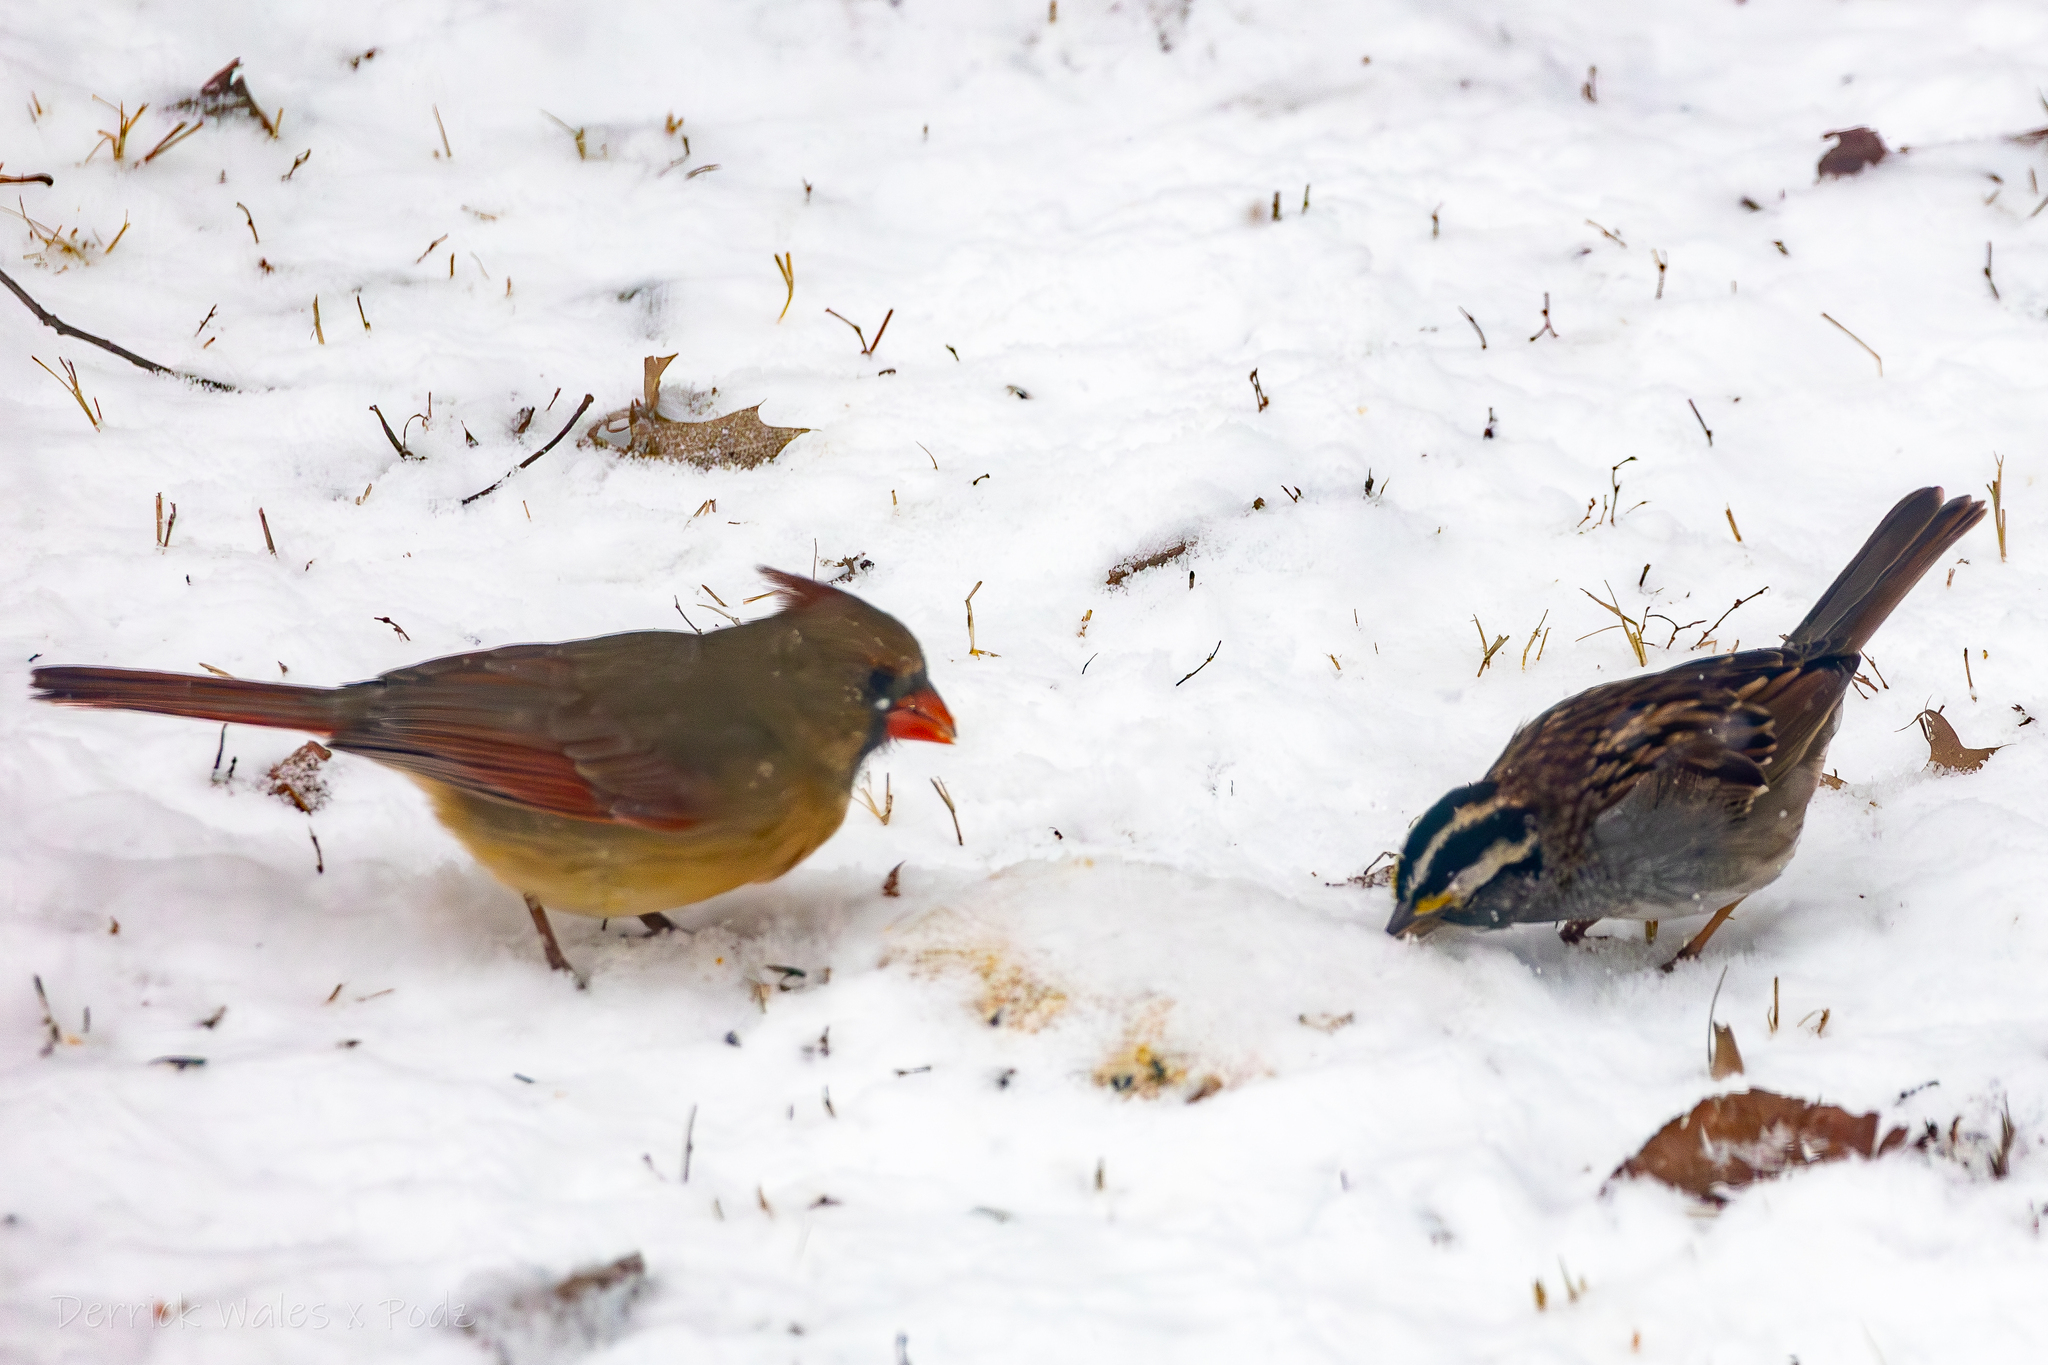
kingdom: Animalia
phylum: Chordata
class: Aves
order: Passeriformes
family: Cardinalidae
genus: Cardinalis
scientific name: Cardinalis cardinalis
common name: Northern cardinal
